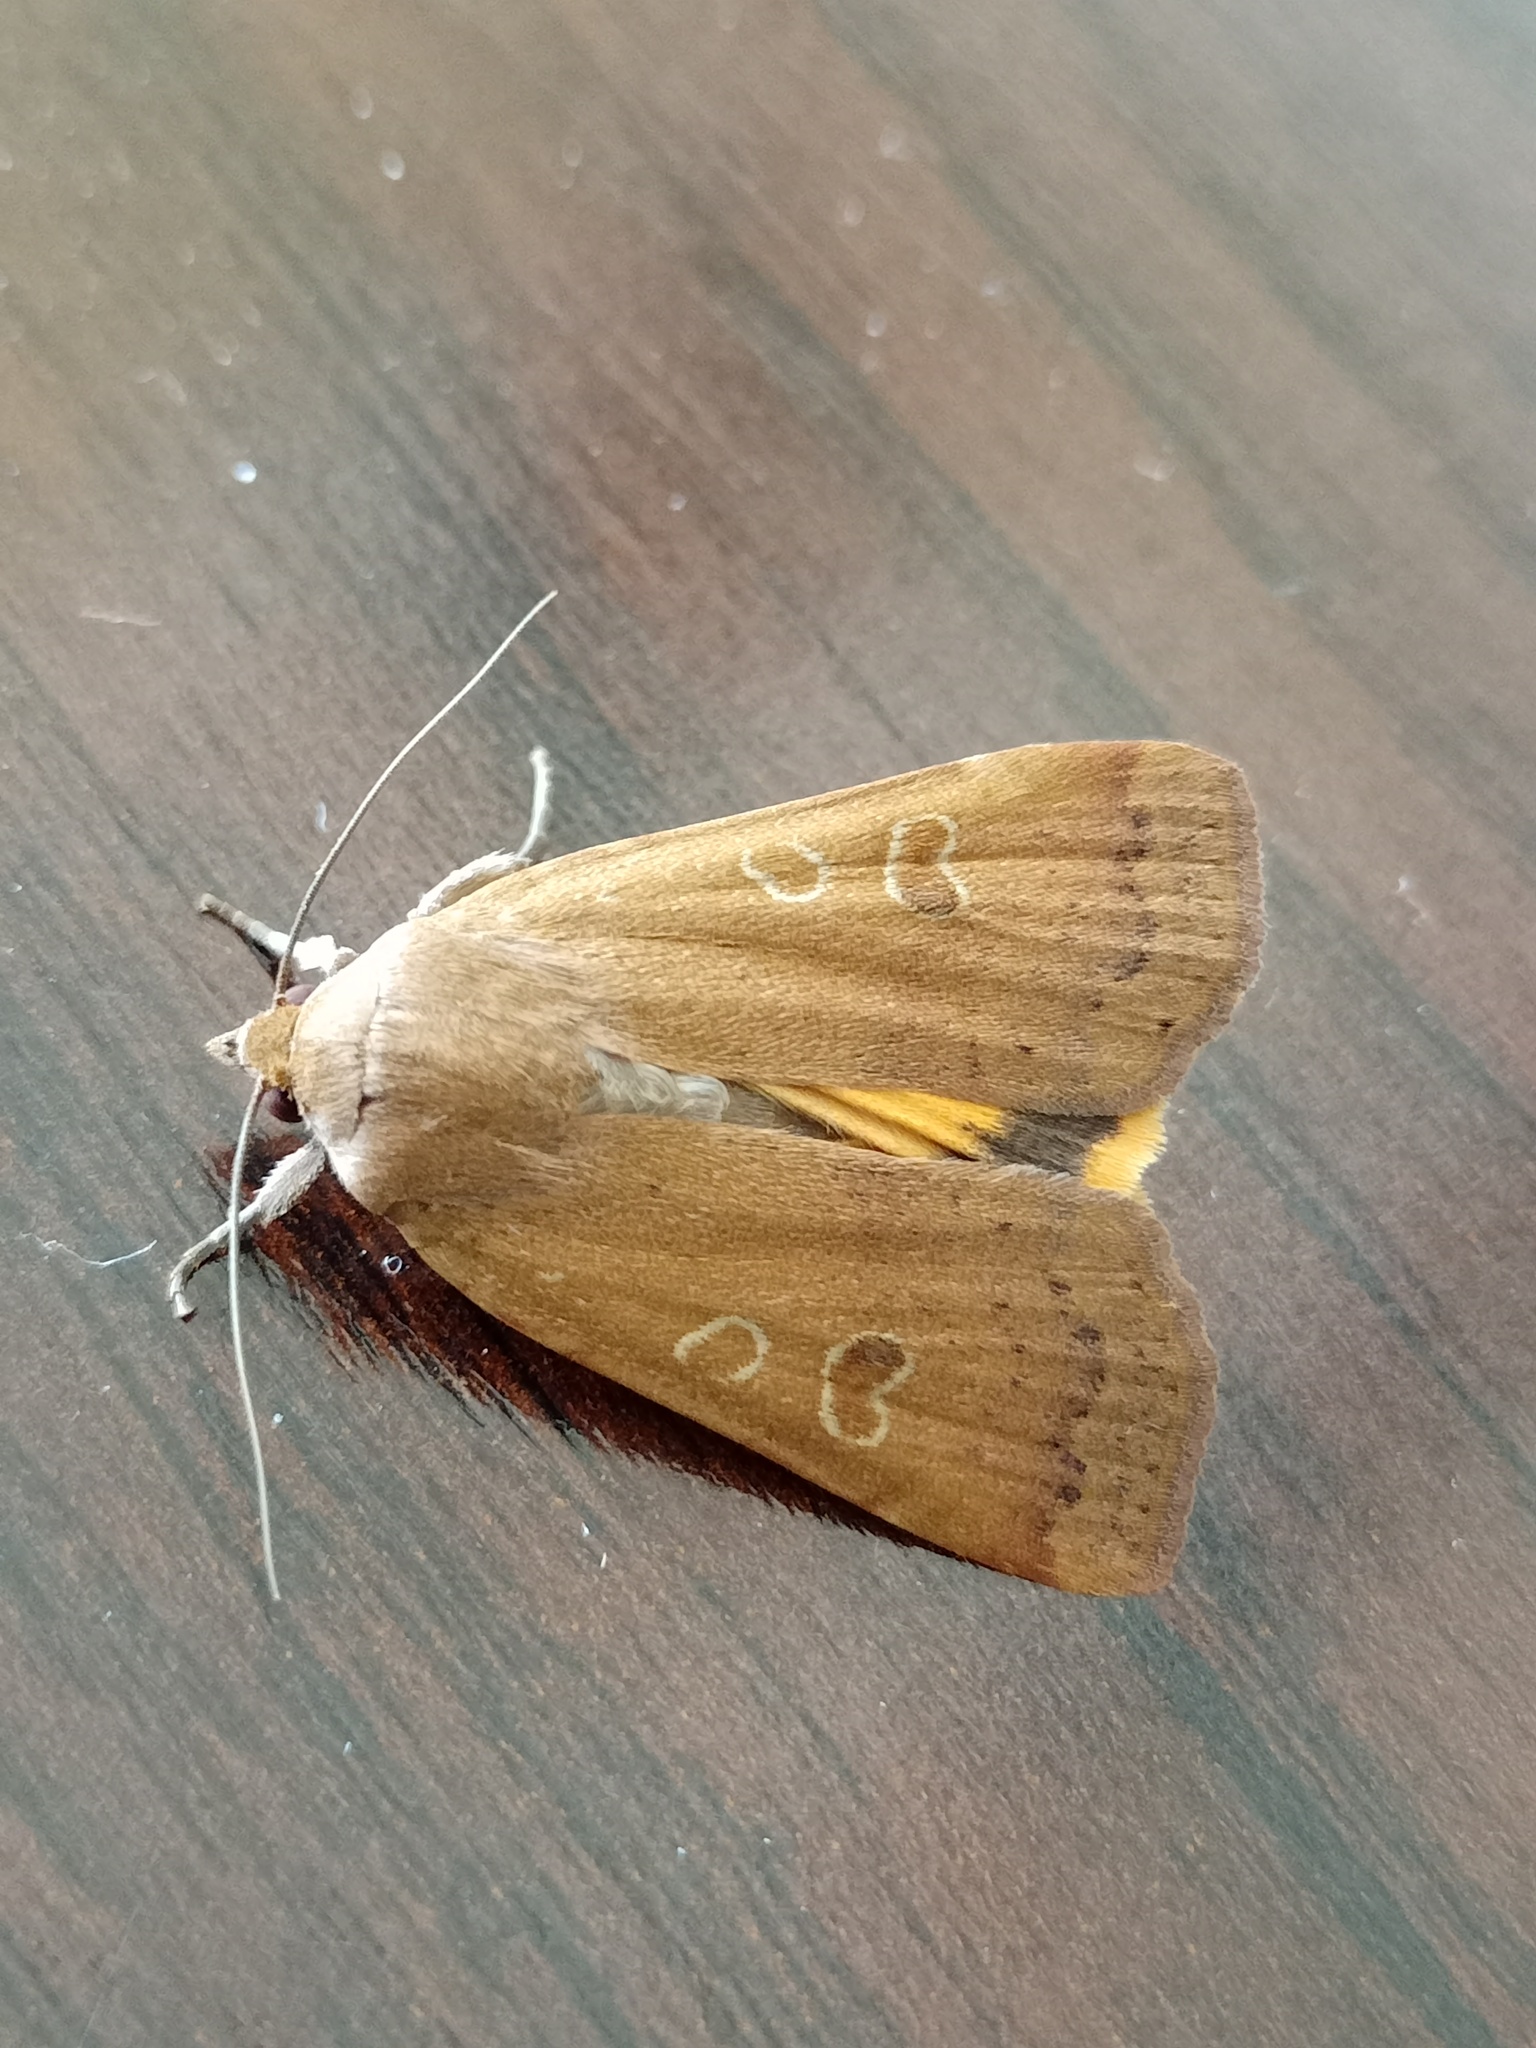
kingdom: Animalia
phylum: Arthropoda
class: Insecta
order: Lepidoptera
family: Noctuidae
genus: Noctua
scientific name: Noctua comes
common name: Lesser yellow underwing
